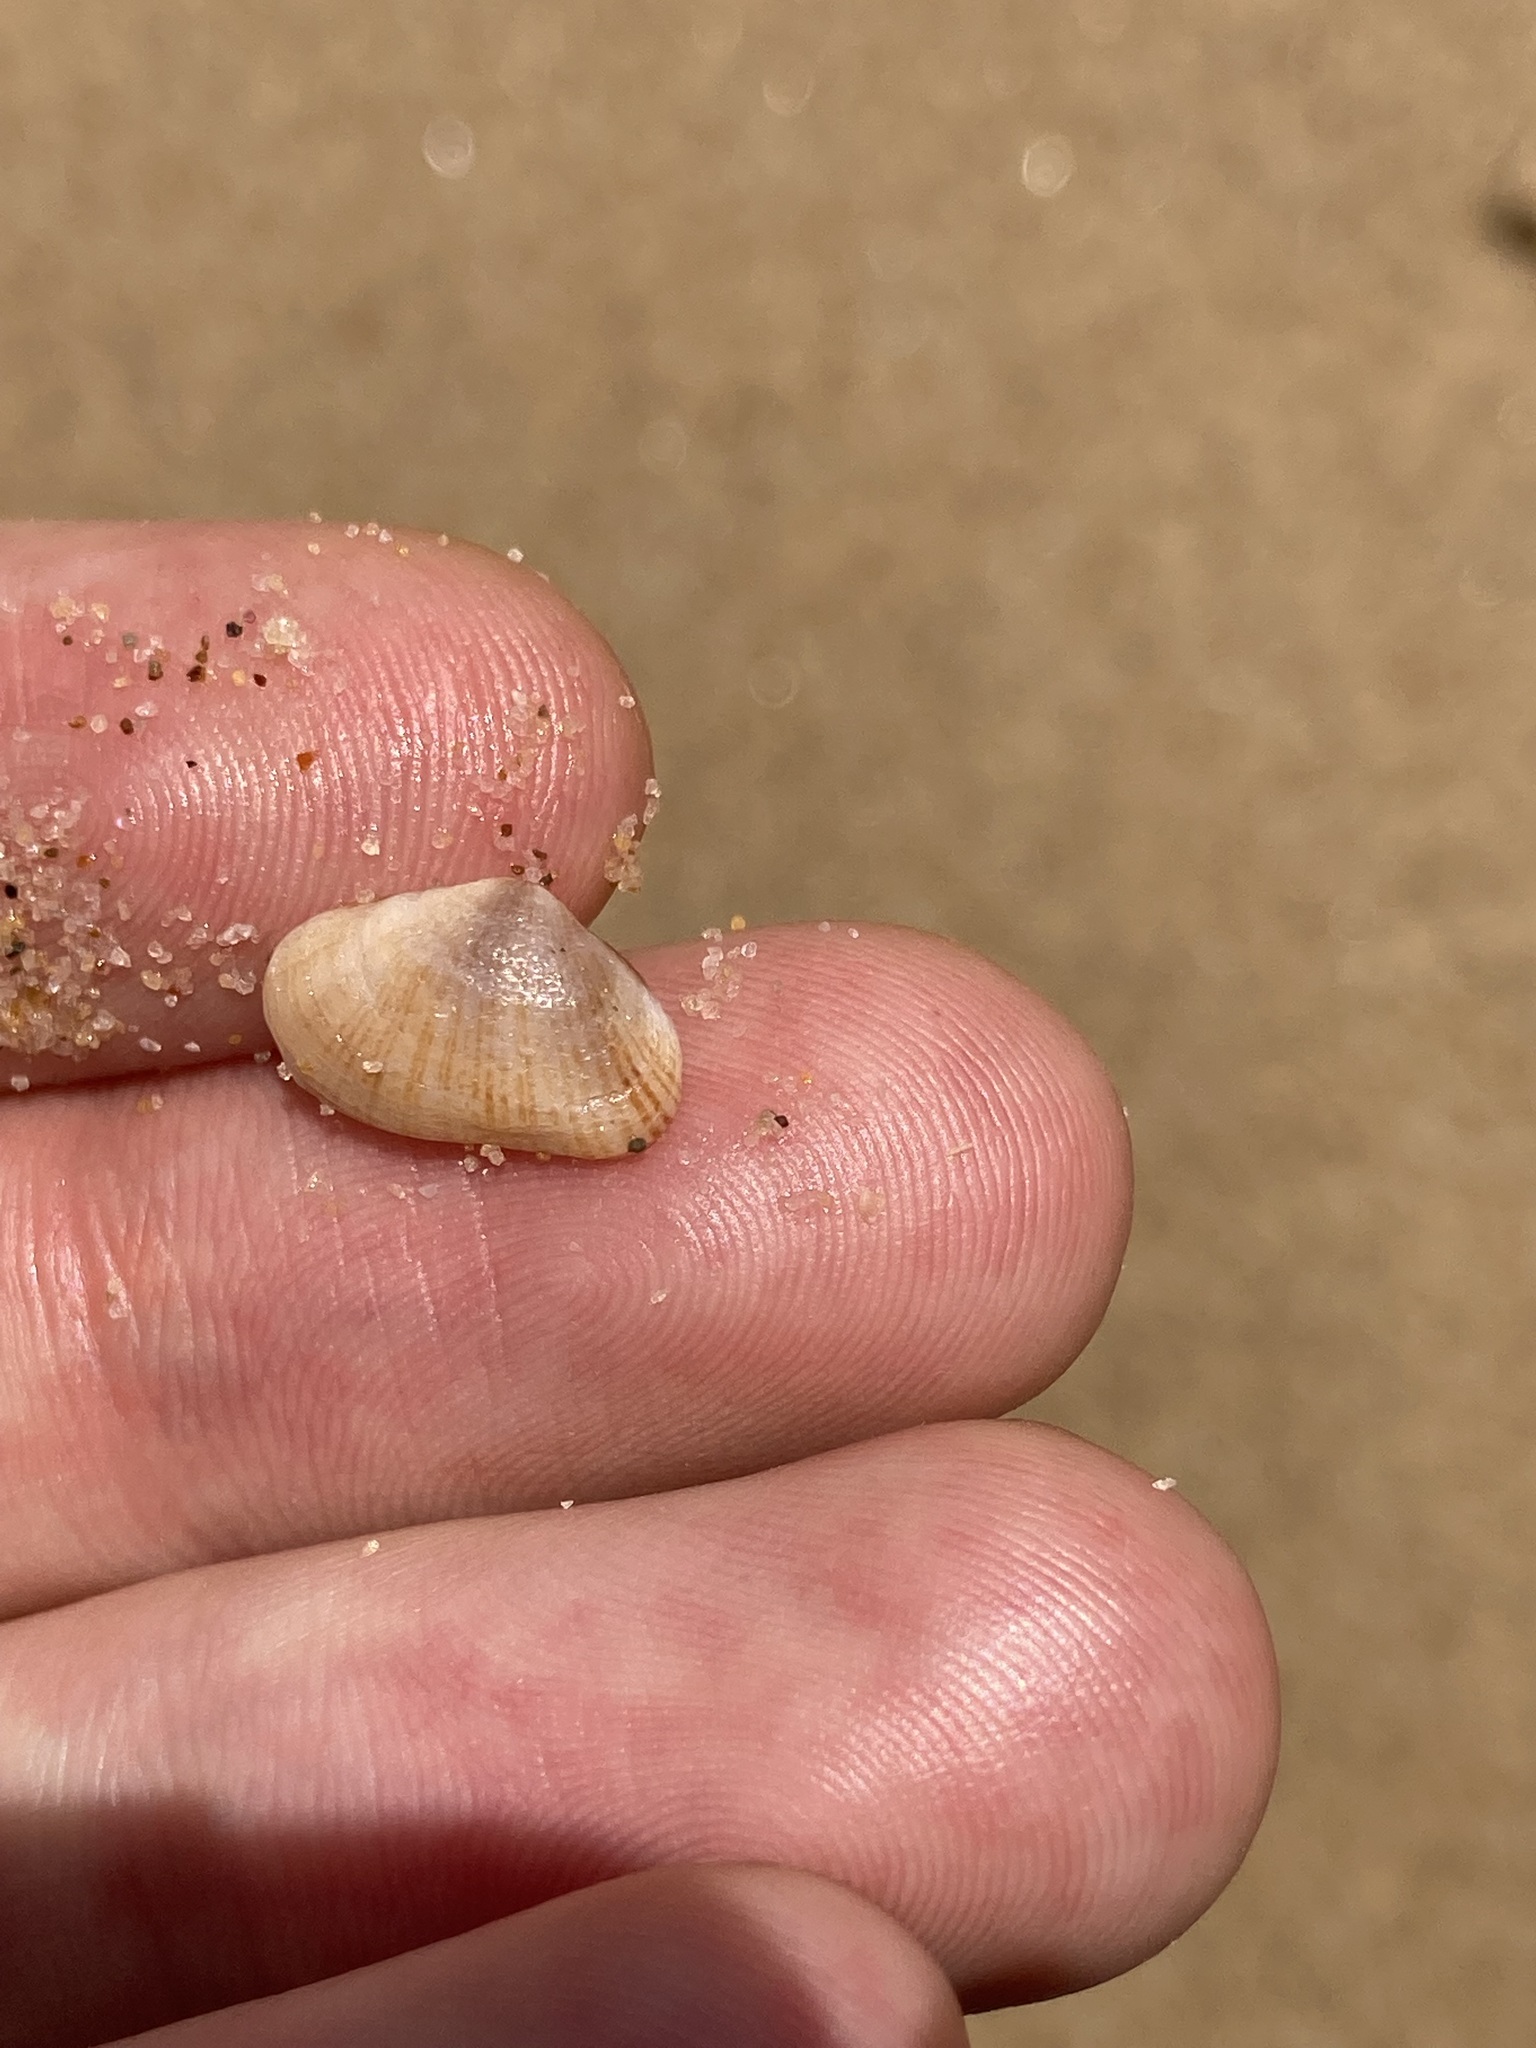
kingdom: Animalia
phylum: Mollusca
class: Bivalvia
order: Venerida
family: Hemidonacidae
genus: Hemidonax
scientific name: Hemidonax dactylus
